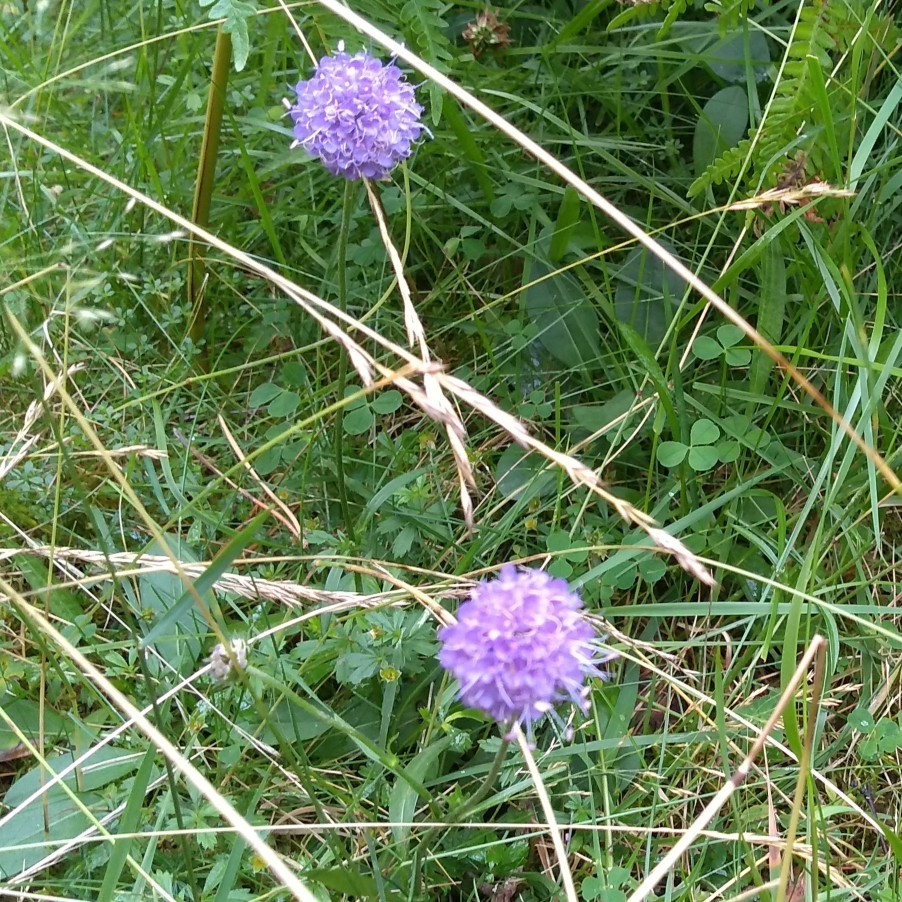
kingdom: Plantae
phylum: Tracheophyta
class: Magnoliopsida
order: Dipsacales
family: Caprifoliaceae
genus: Succisa
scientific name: Succisa pratensis
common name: Devil's-bit
